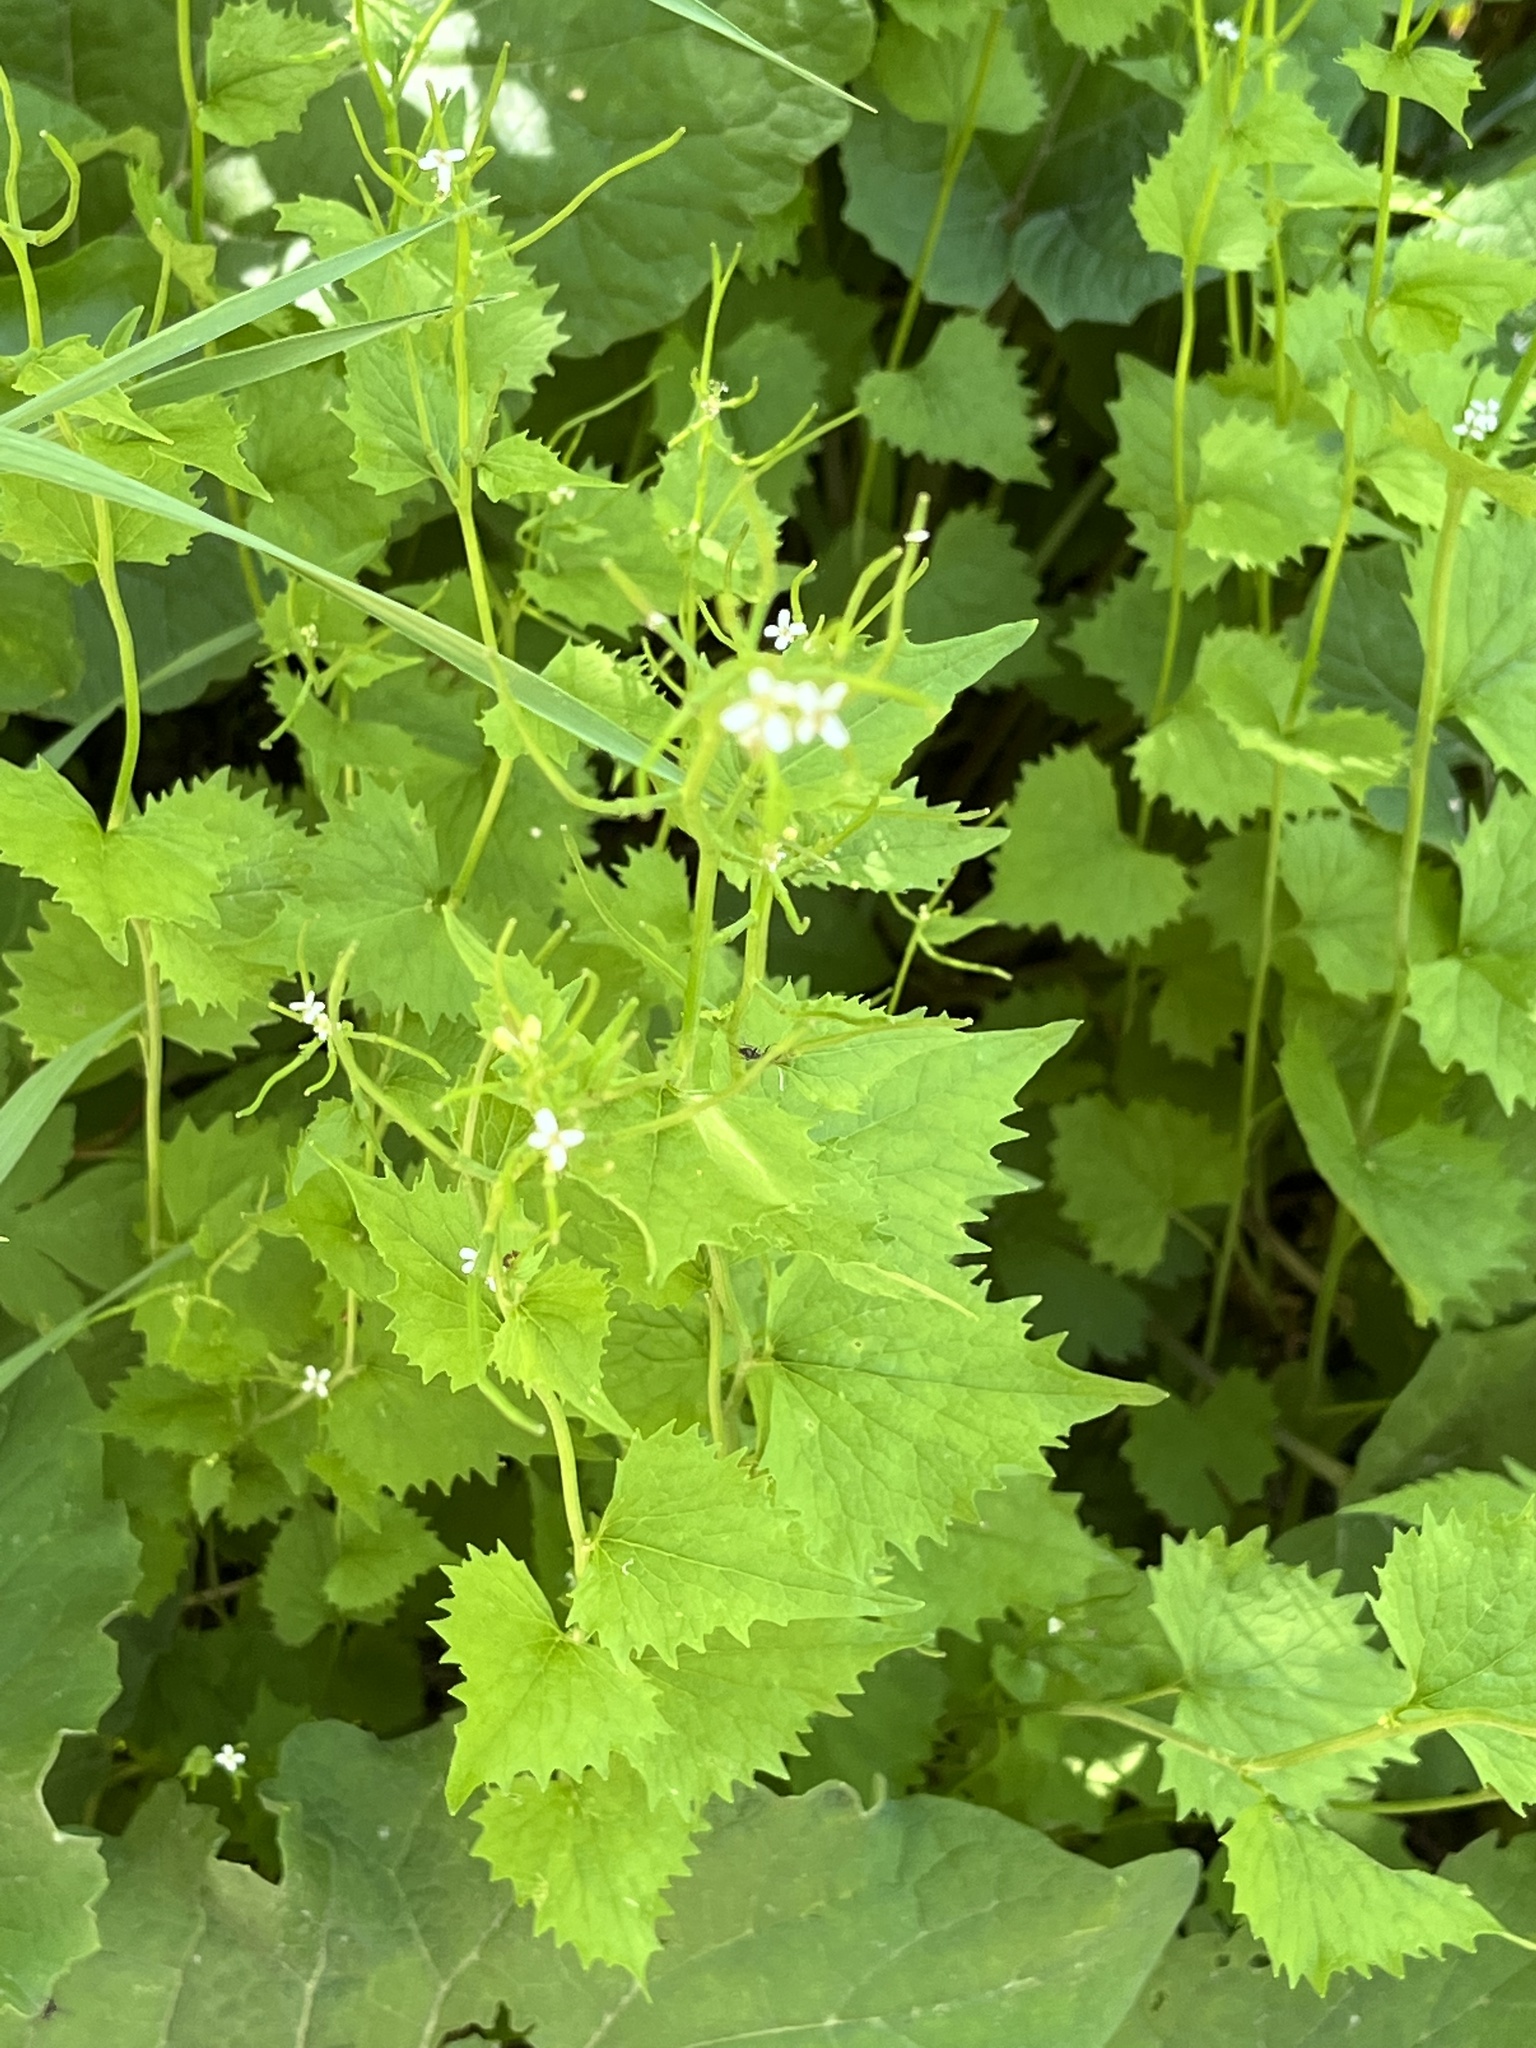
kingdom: Plantae
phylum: Tracheophyta
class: Magnoliopsida
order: Brassicales
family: Brassicaceae
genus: Alliaria
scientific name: Alliaria petiolata
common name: Garlic mustard
